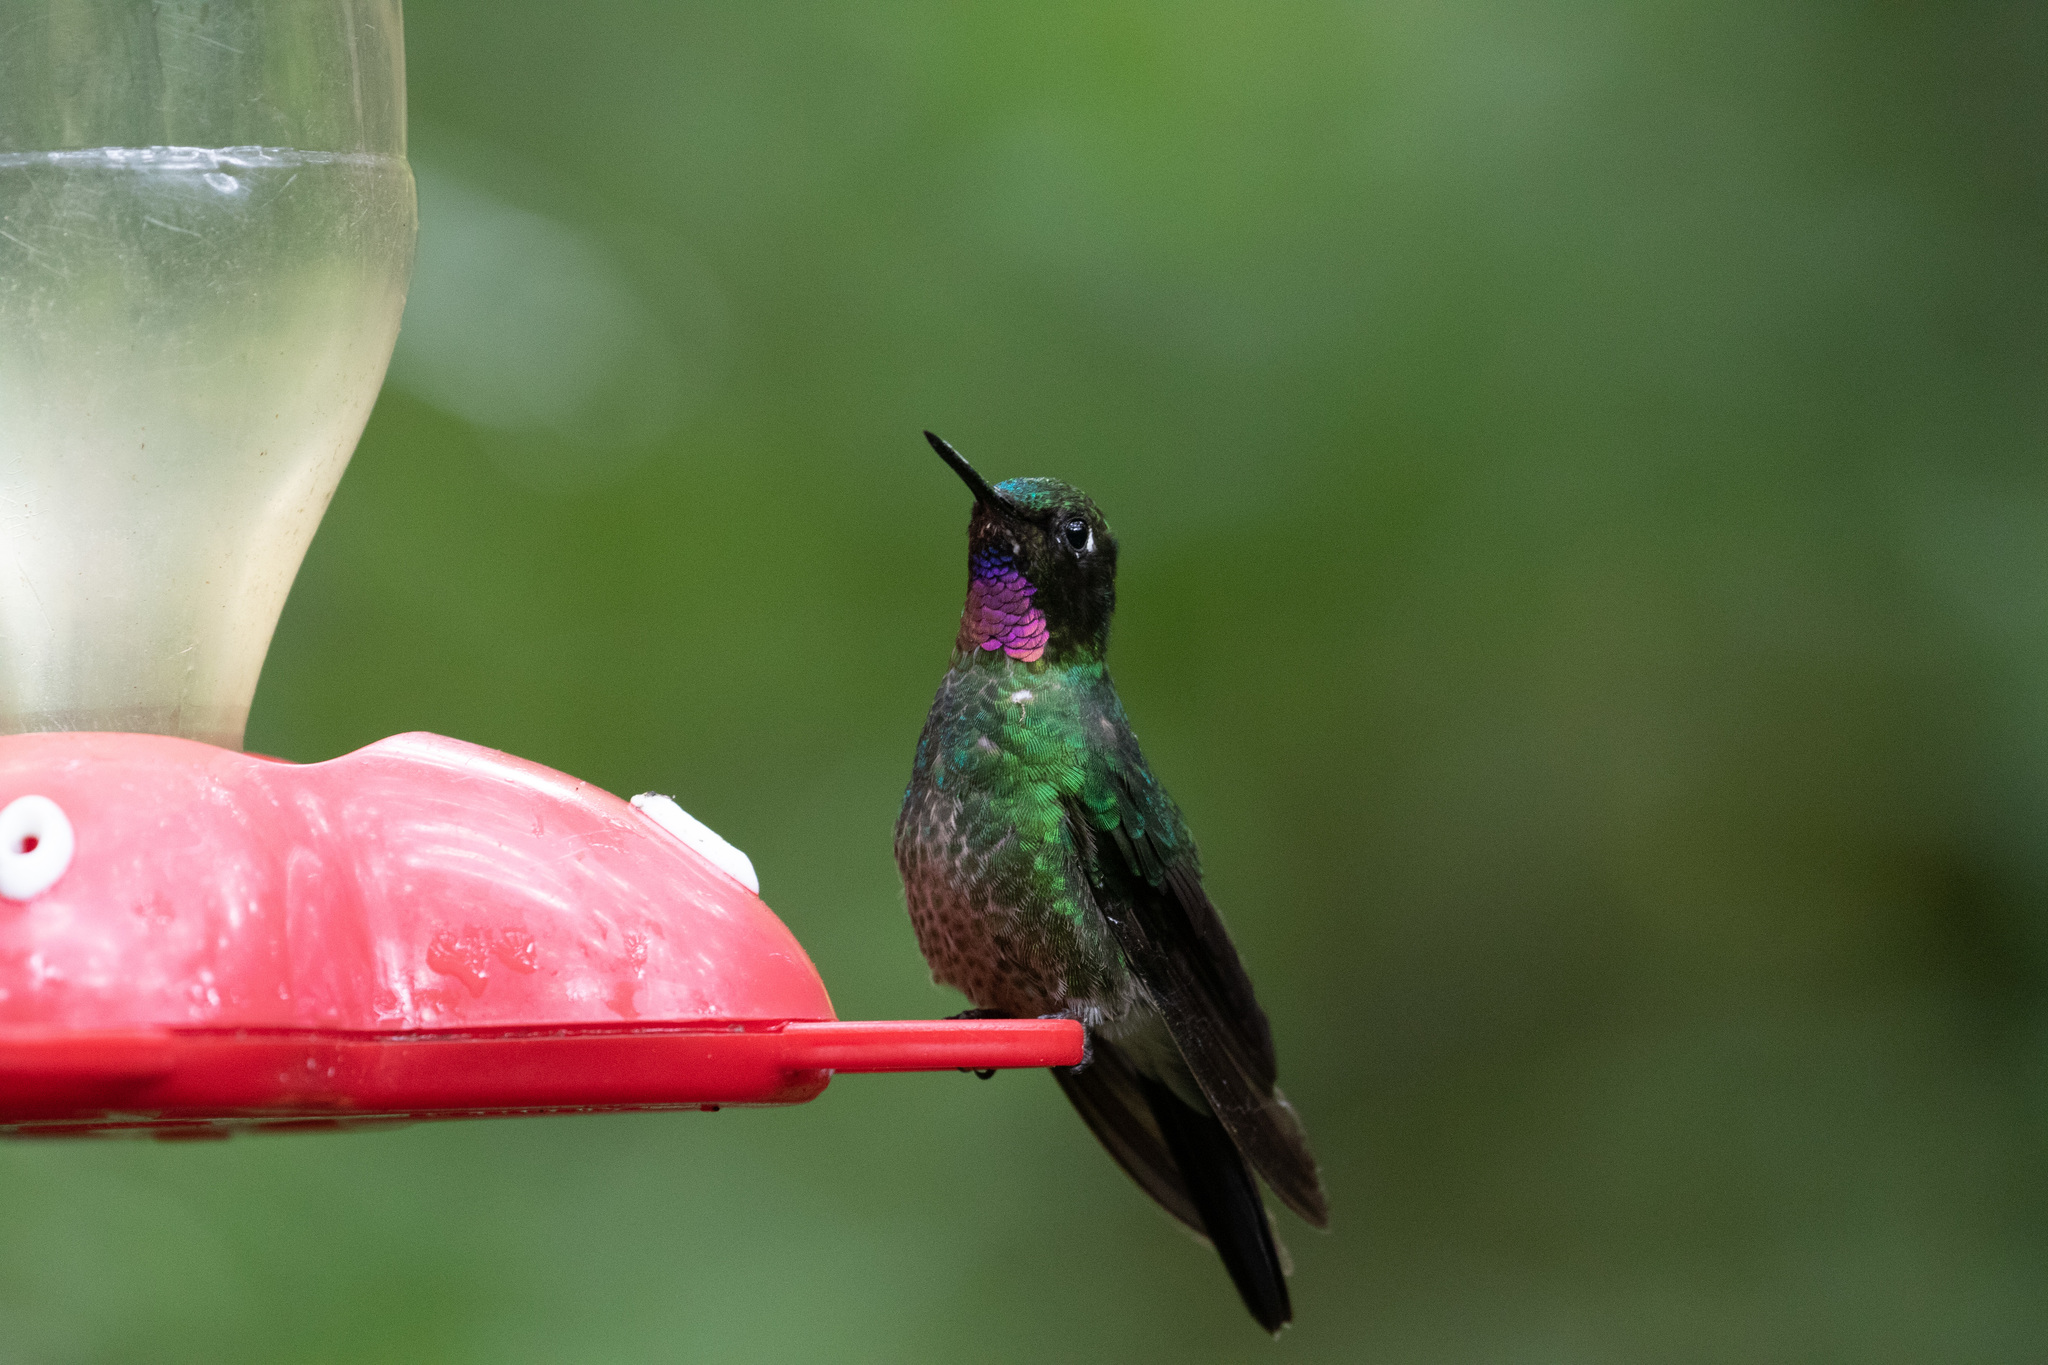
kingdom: Animalia
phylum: Chordata
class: Aves
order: Apodiformes
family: Trochilidae
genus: Heliangelus
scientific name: Heliangelus exortis
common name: Tourmaline sunangel
